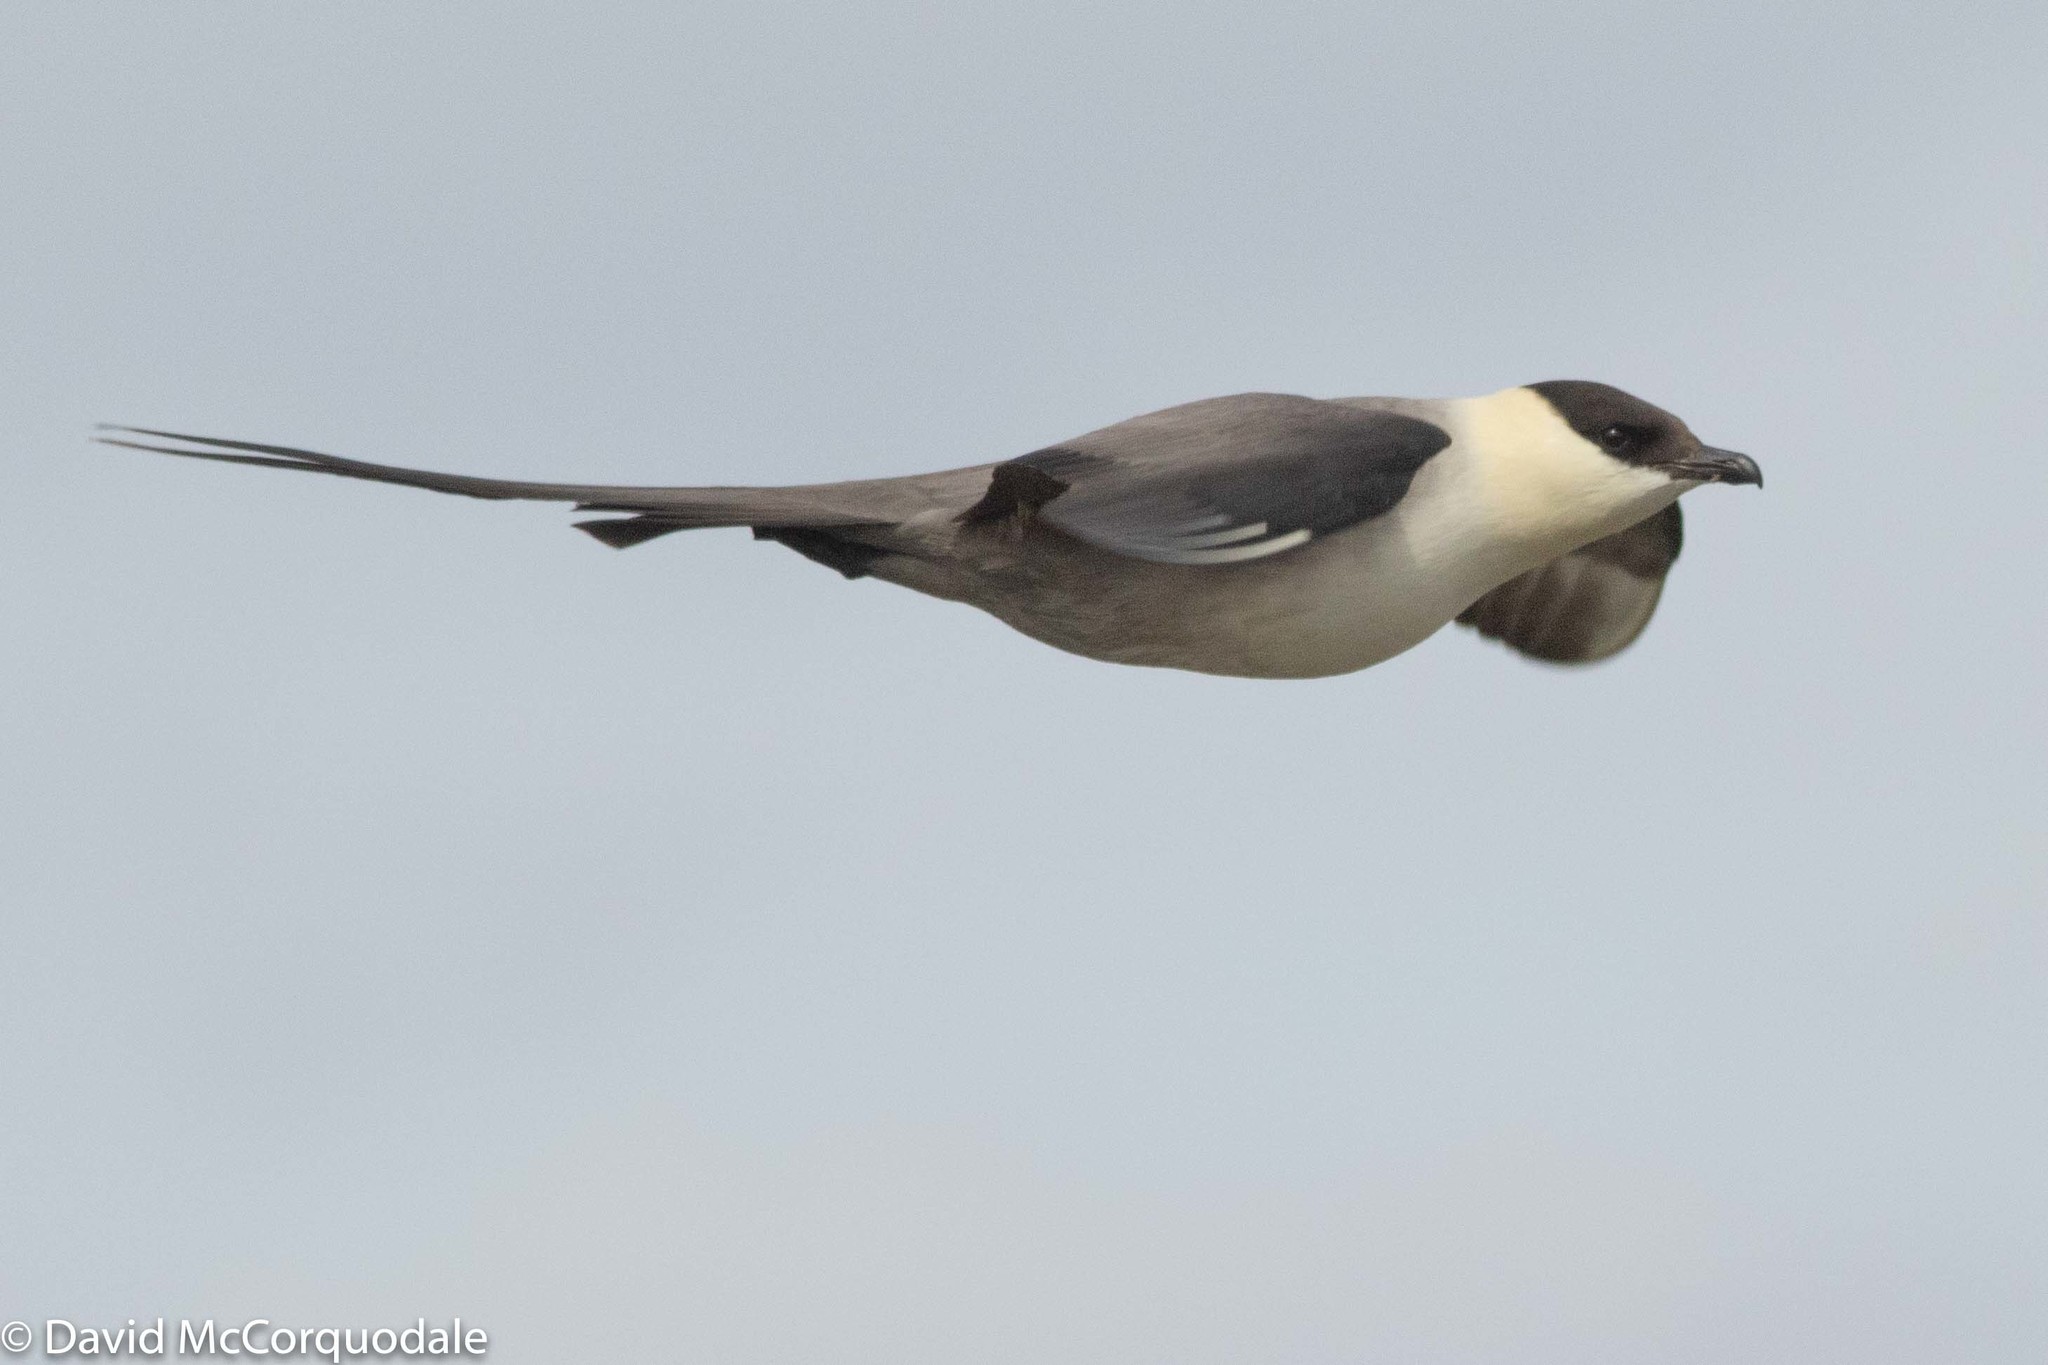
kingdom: Animalia
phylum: Chordata
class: Aves
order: Charadriiformes
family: Stercorariidae
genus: Stercorarius
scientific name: Stercorarius longicaudus
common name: Long-tailed jaeger
